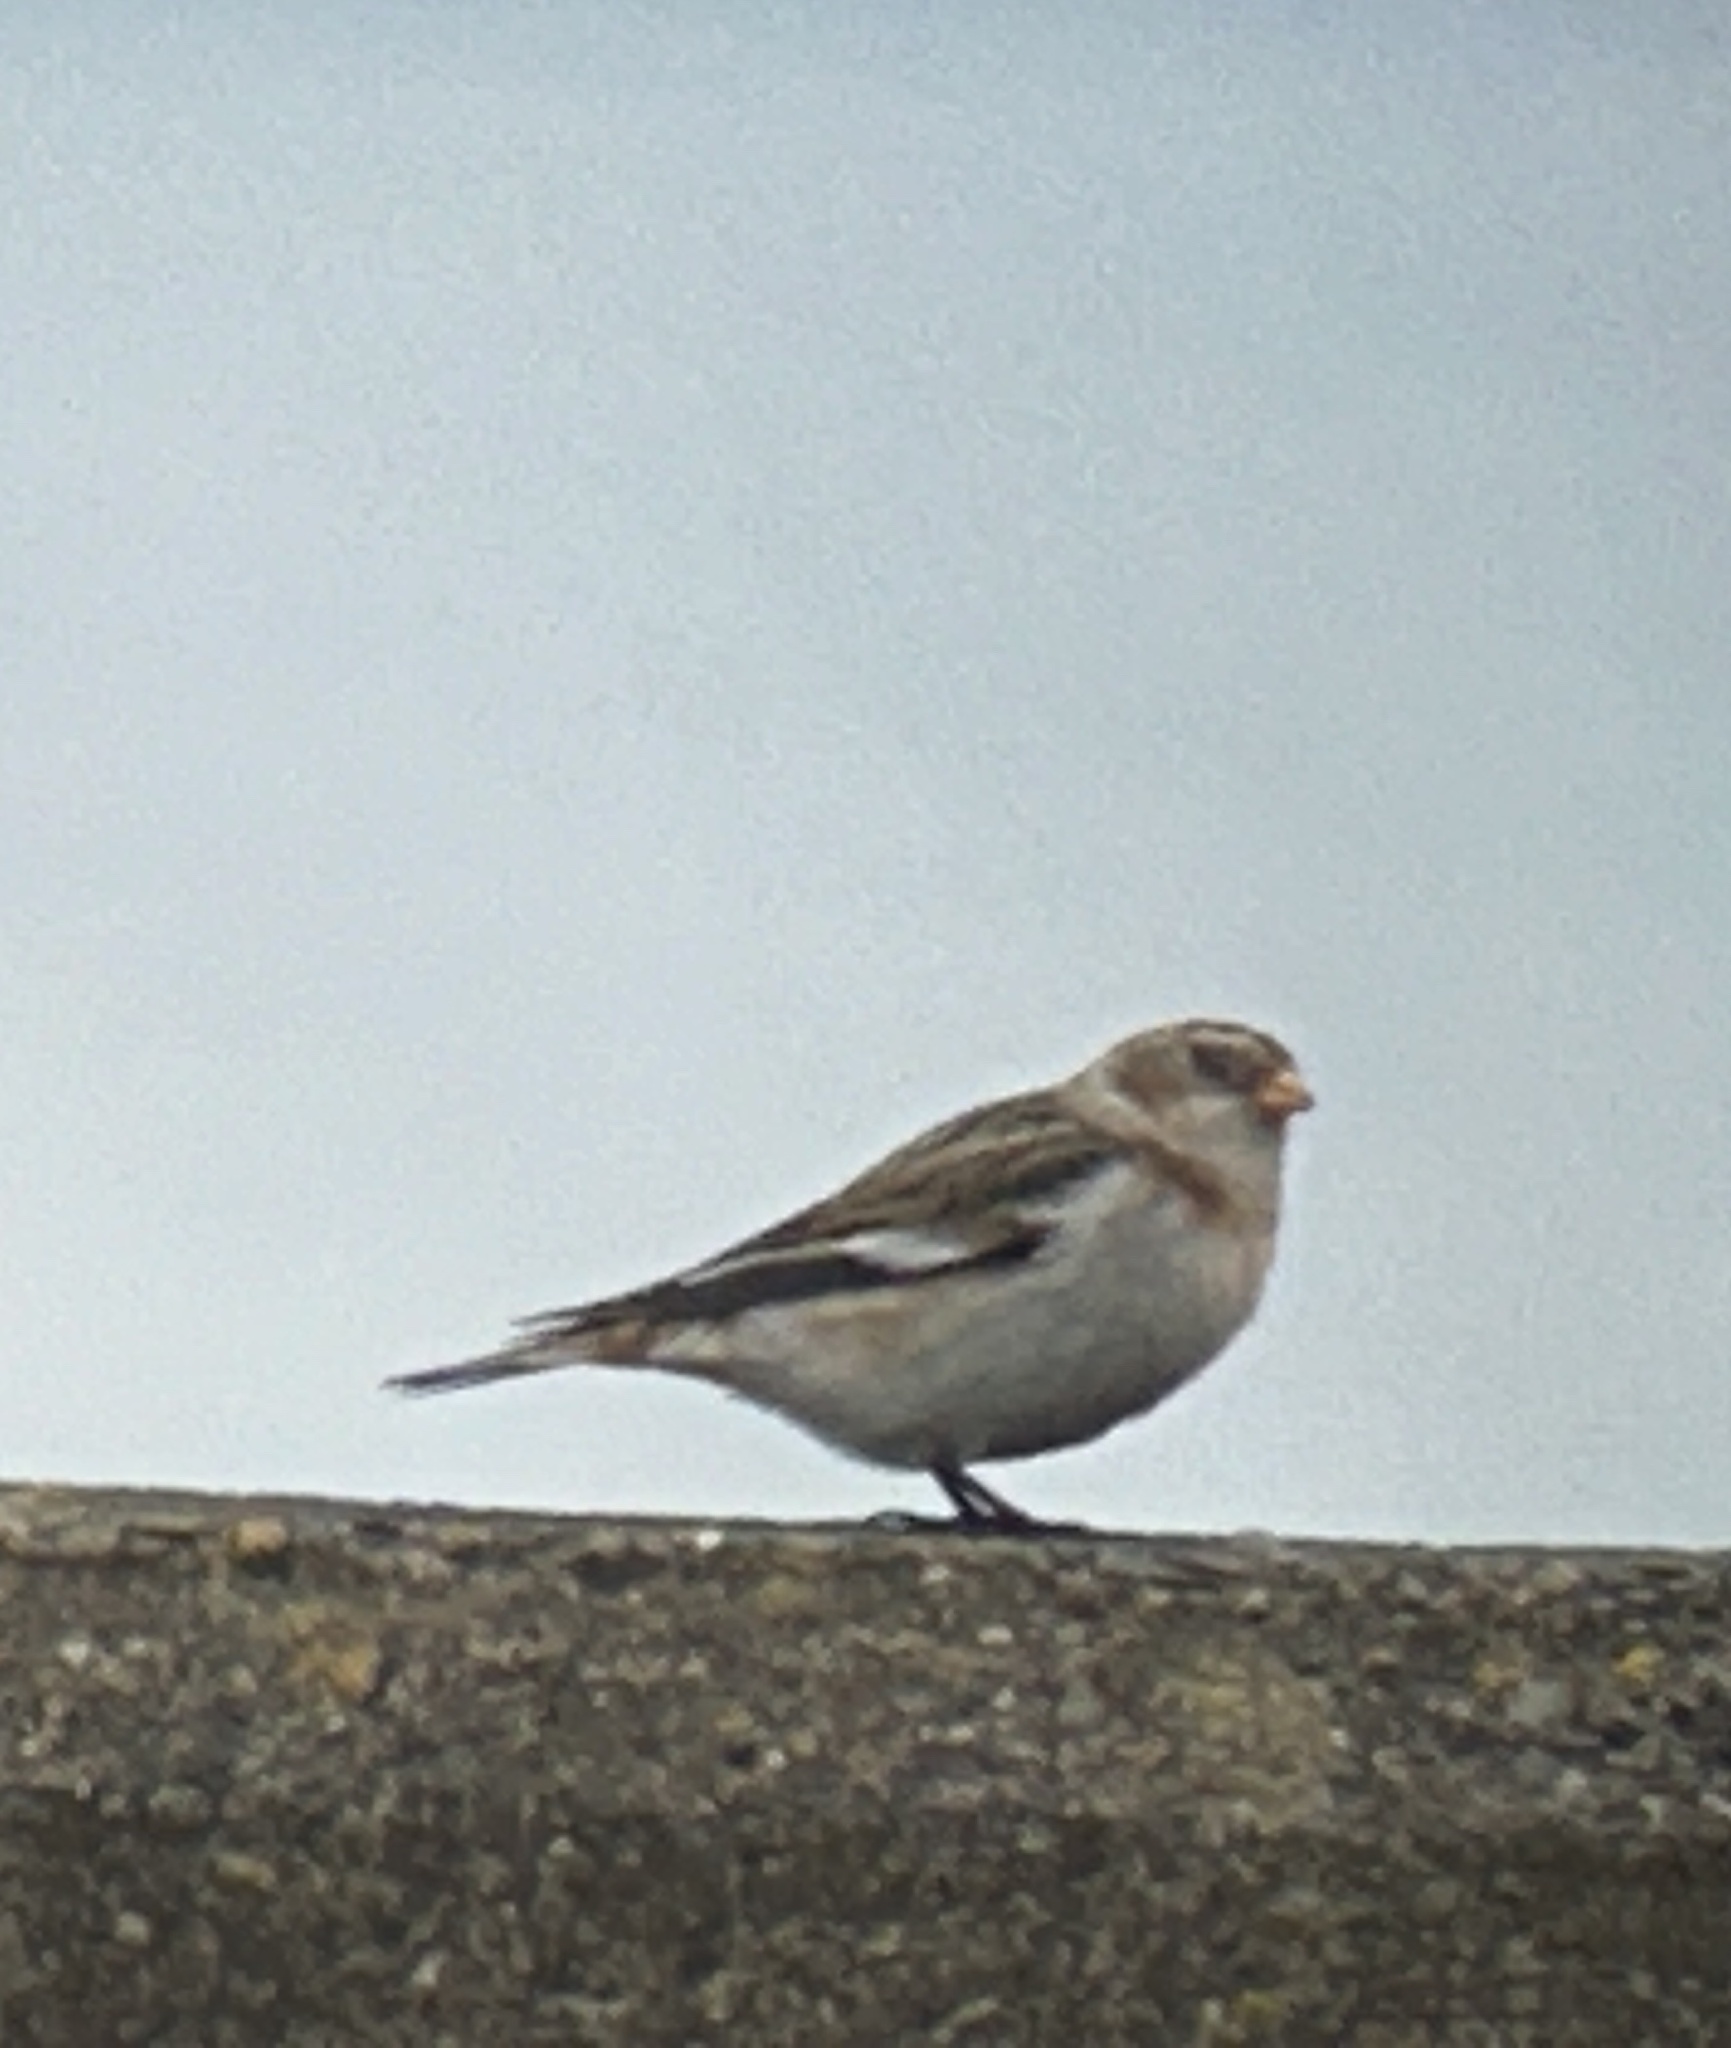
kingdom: Animalia
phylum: Chordata
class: Aves
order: Passeriformes
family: Calcariidae
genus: Plectrophenax
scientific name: Plectrophenax nivalis
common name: Snow bunting
